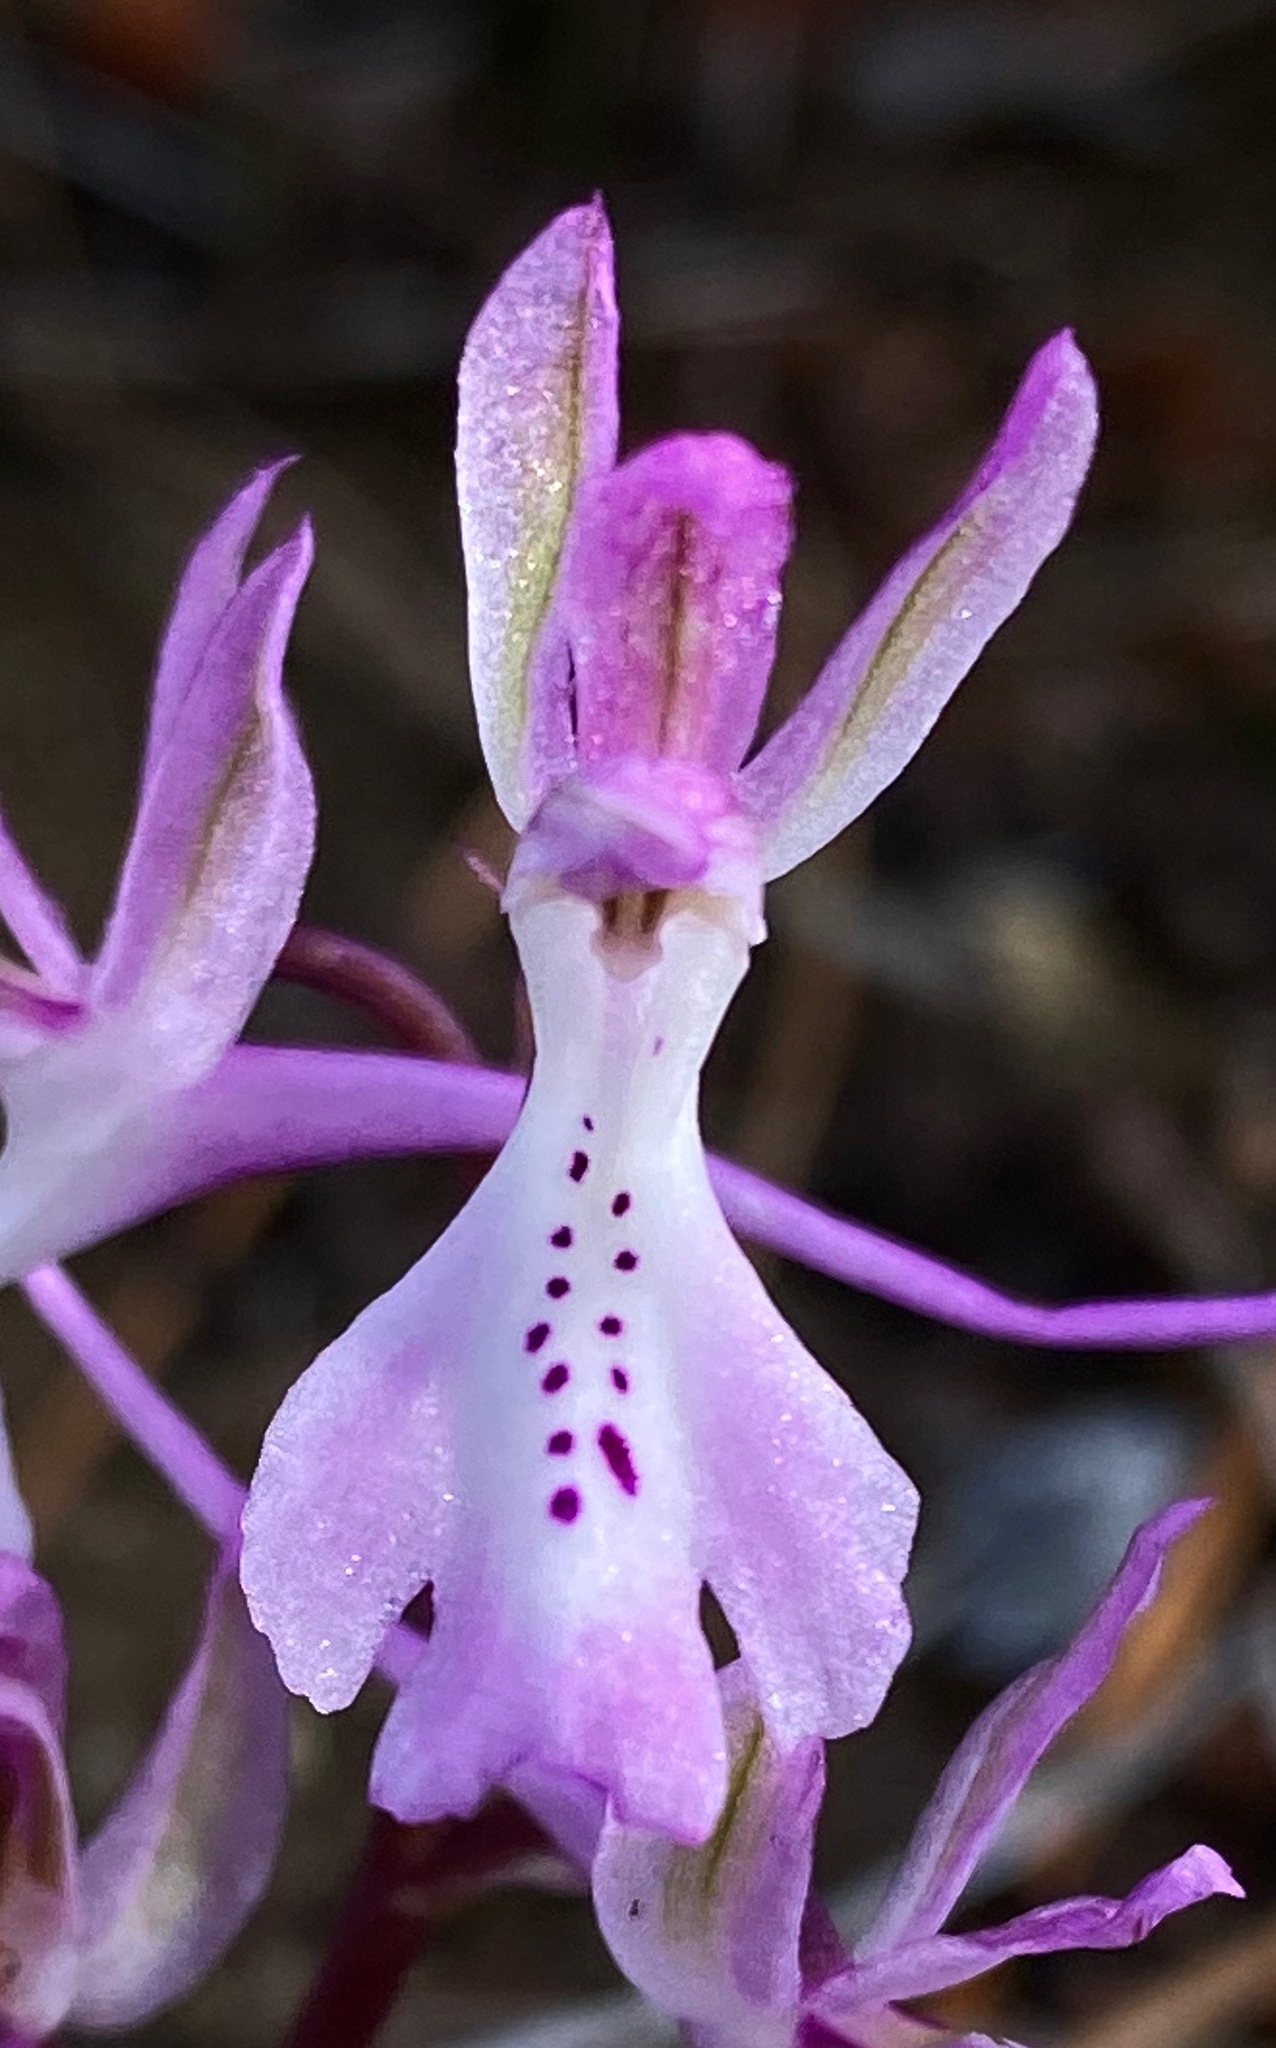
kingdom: Plantae
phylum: Tracheophyta
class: Liliopsida
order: Asparagales
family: Orchidaceae
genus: Orchis
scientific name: Orchis anatolica
